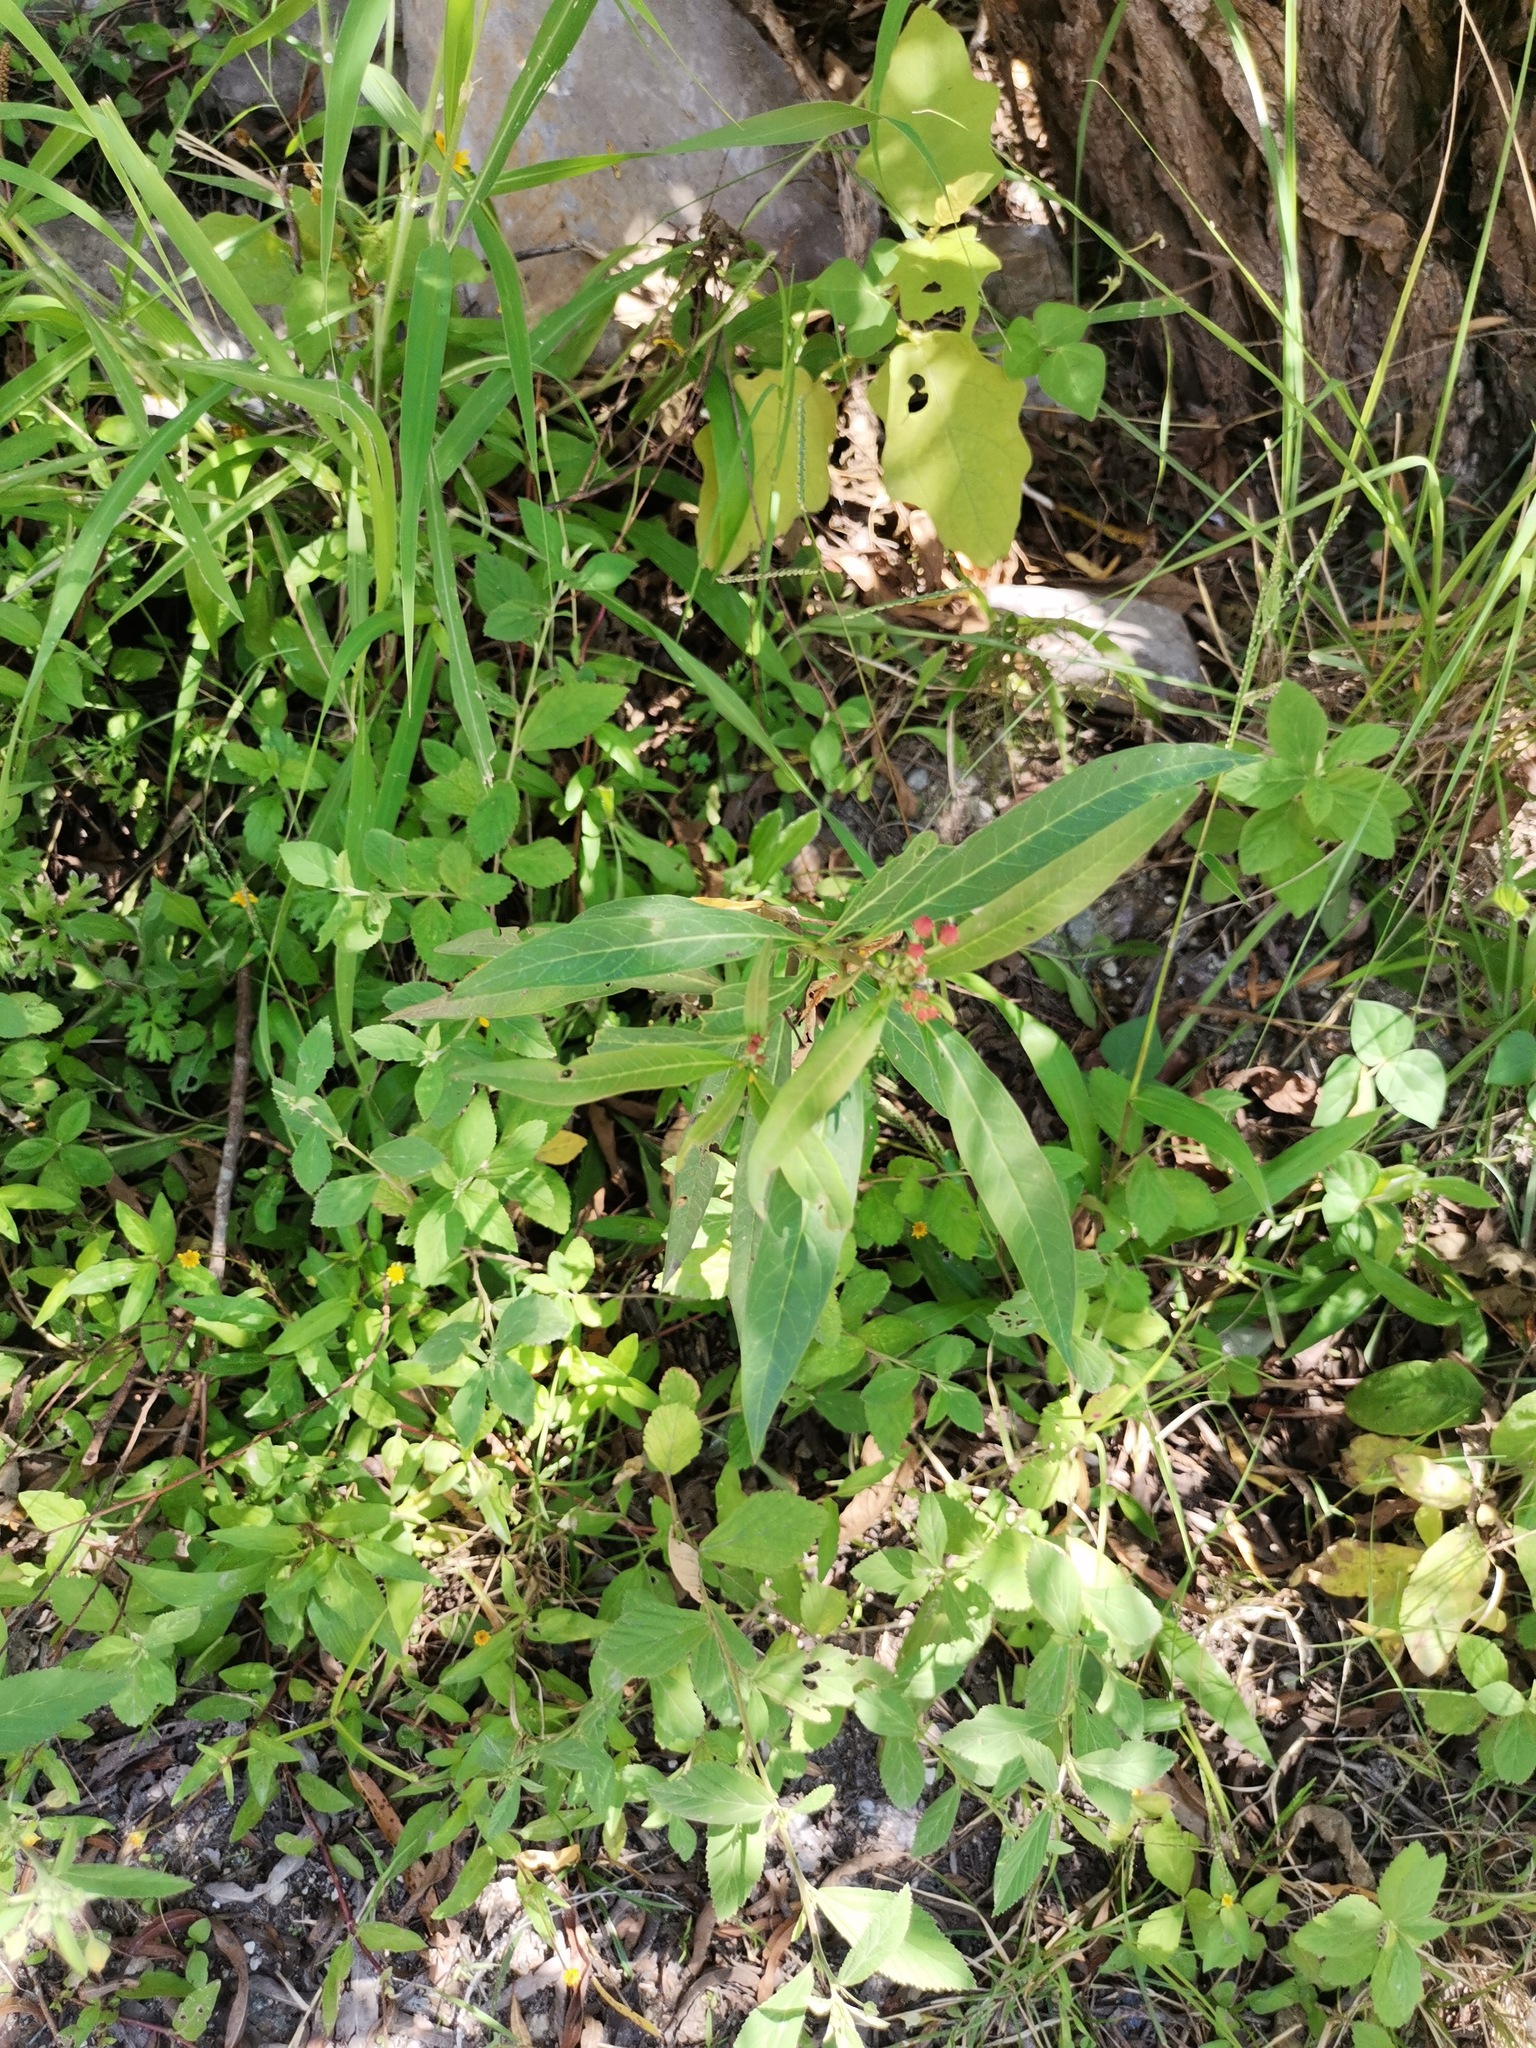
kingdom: Plantae
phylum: Tracheophyta
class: Magnoliopsida
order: Gentianales
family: Apocynaceae
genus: Asclepias
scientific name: Asclepias curassavica
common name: Bloodflower
